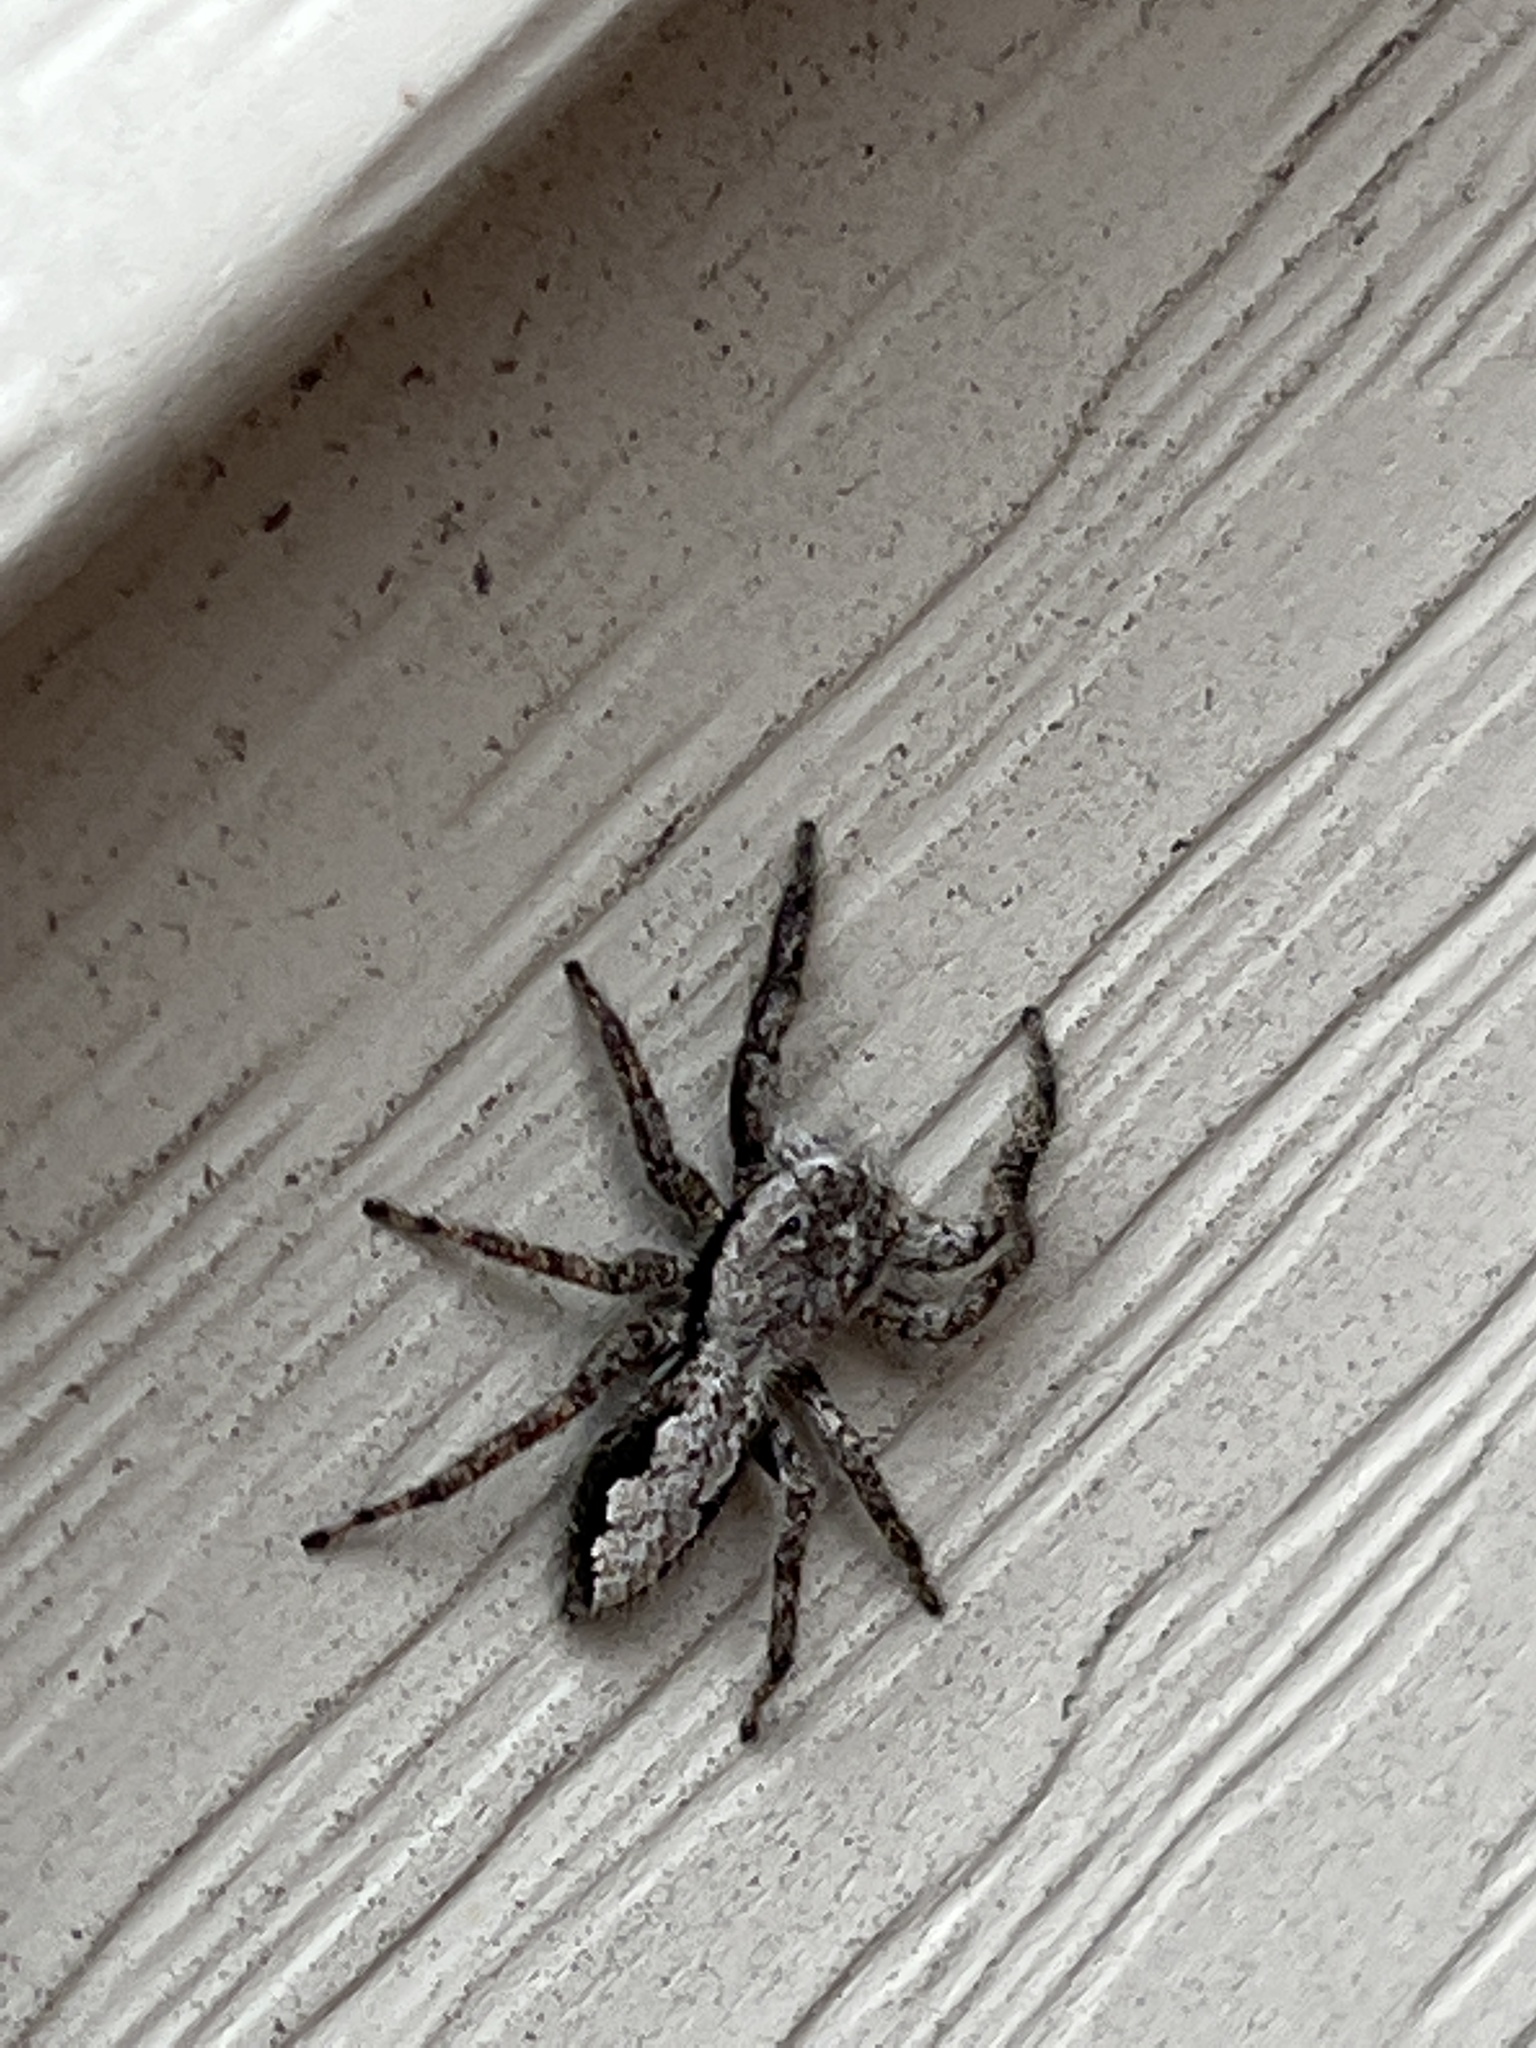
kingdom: Animalia
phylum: Arthropoda
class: Arachnida
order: Araneae
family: Salticidae
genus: Platycryptus
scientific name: Platycryptus undatus
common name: Tan jumping spider
